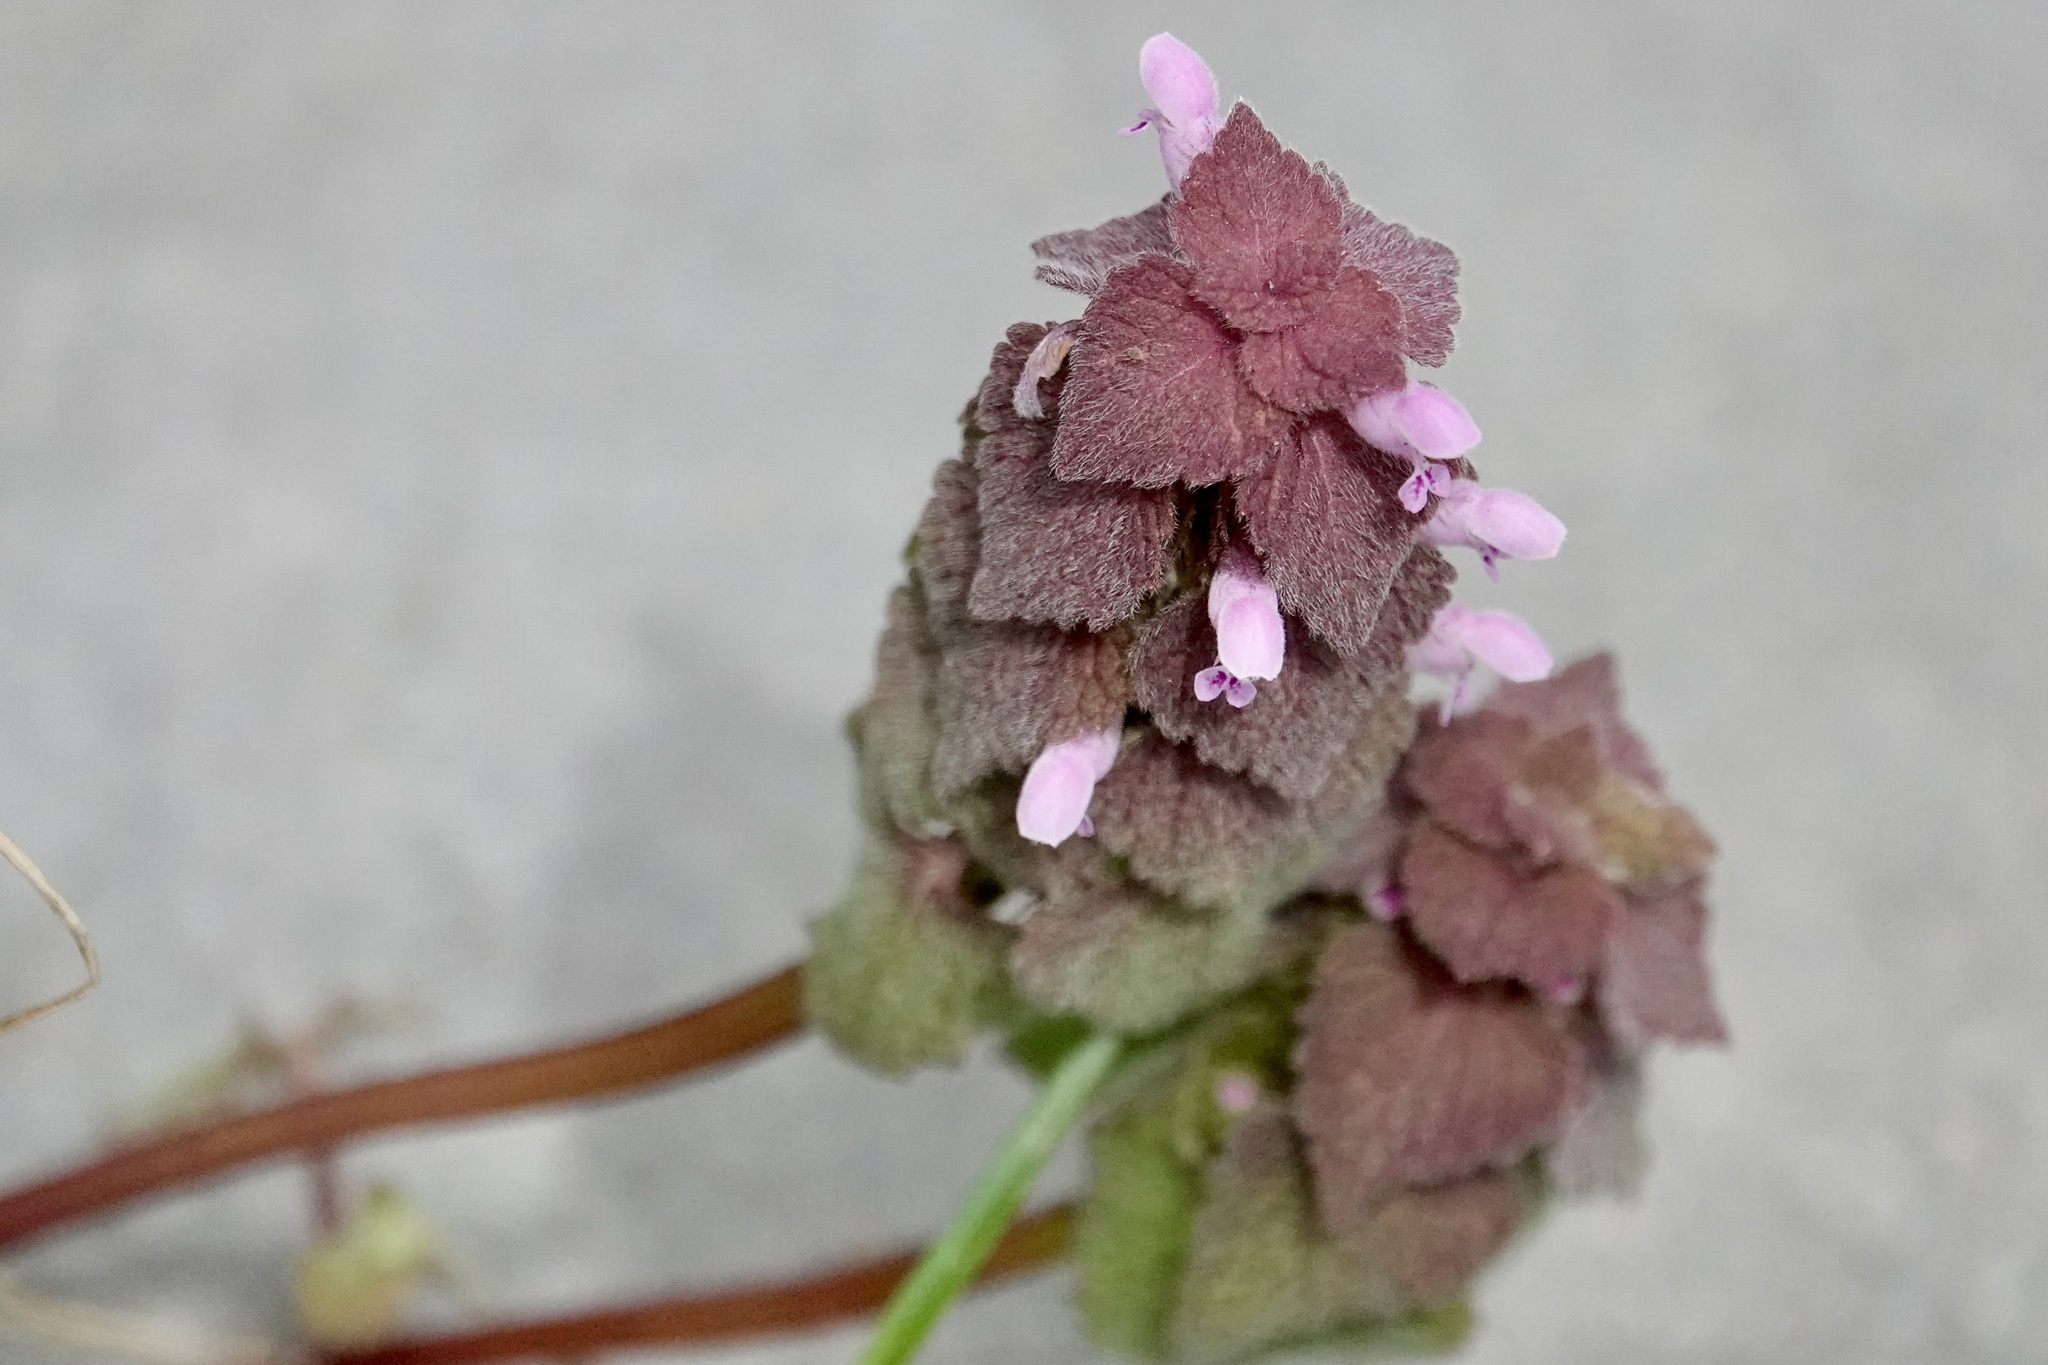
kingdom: Plantae
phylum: Tracheophyta
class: Magnoliopsida
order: Lamiales
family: Lamiaceae
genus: Lamium
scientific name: Lamium purpureum
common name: Red dead-nettle
